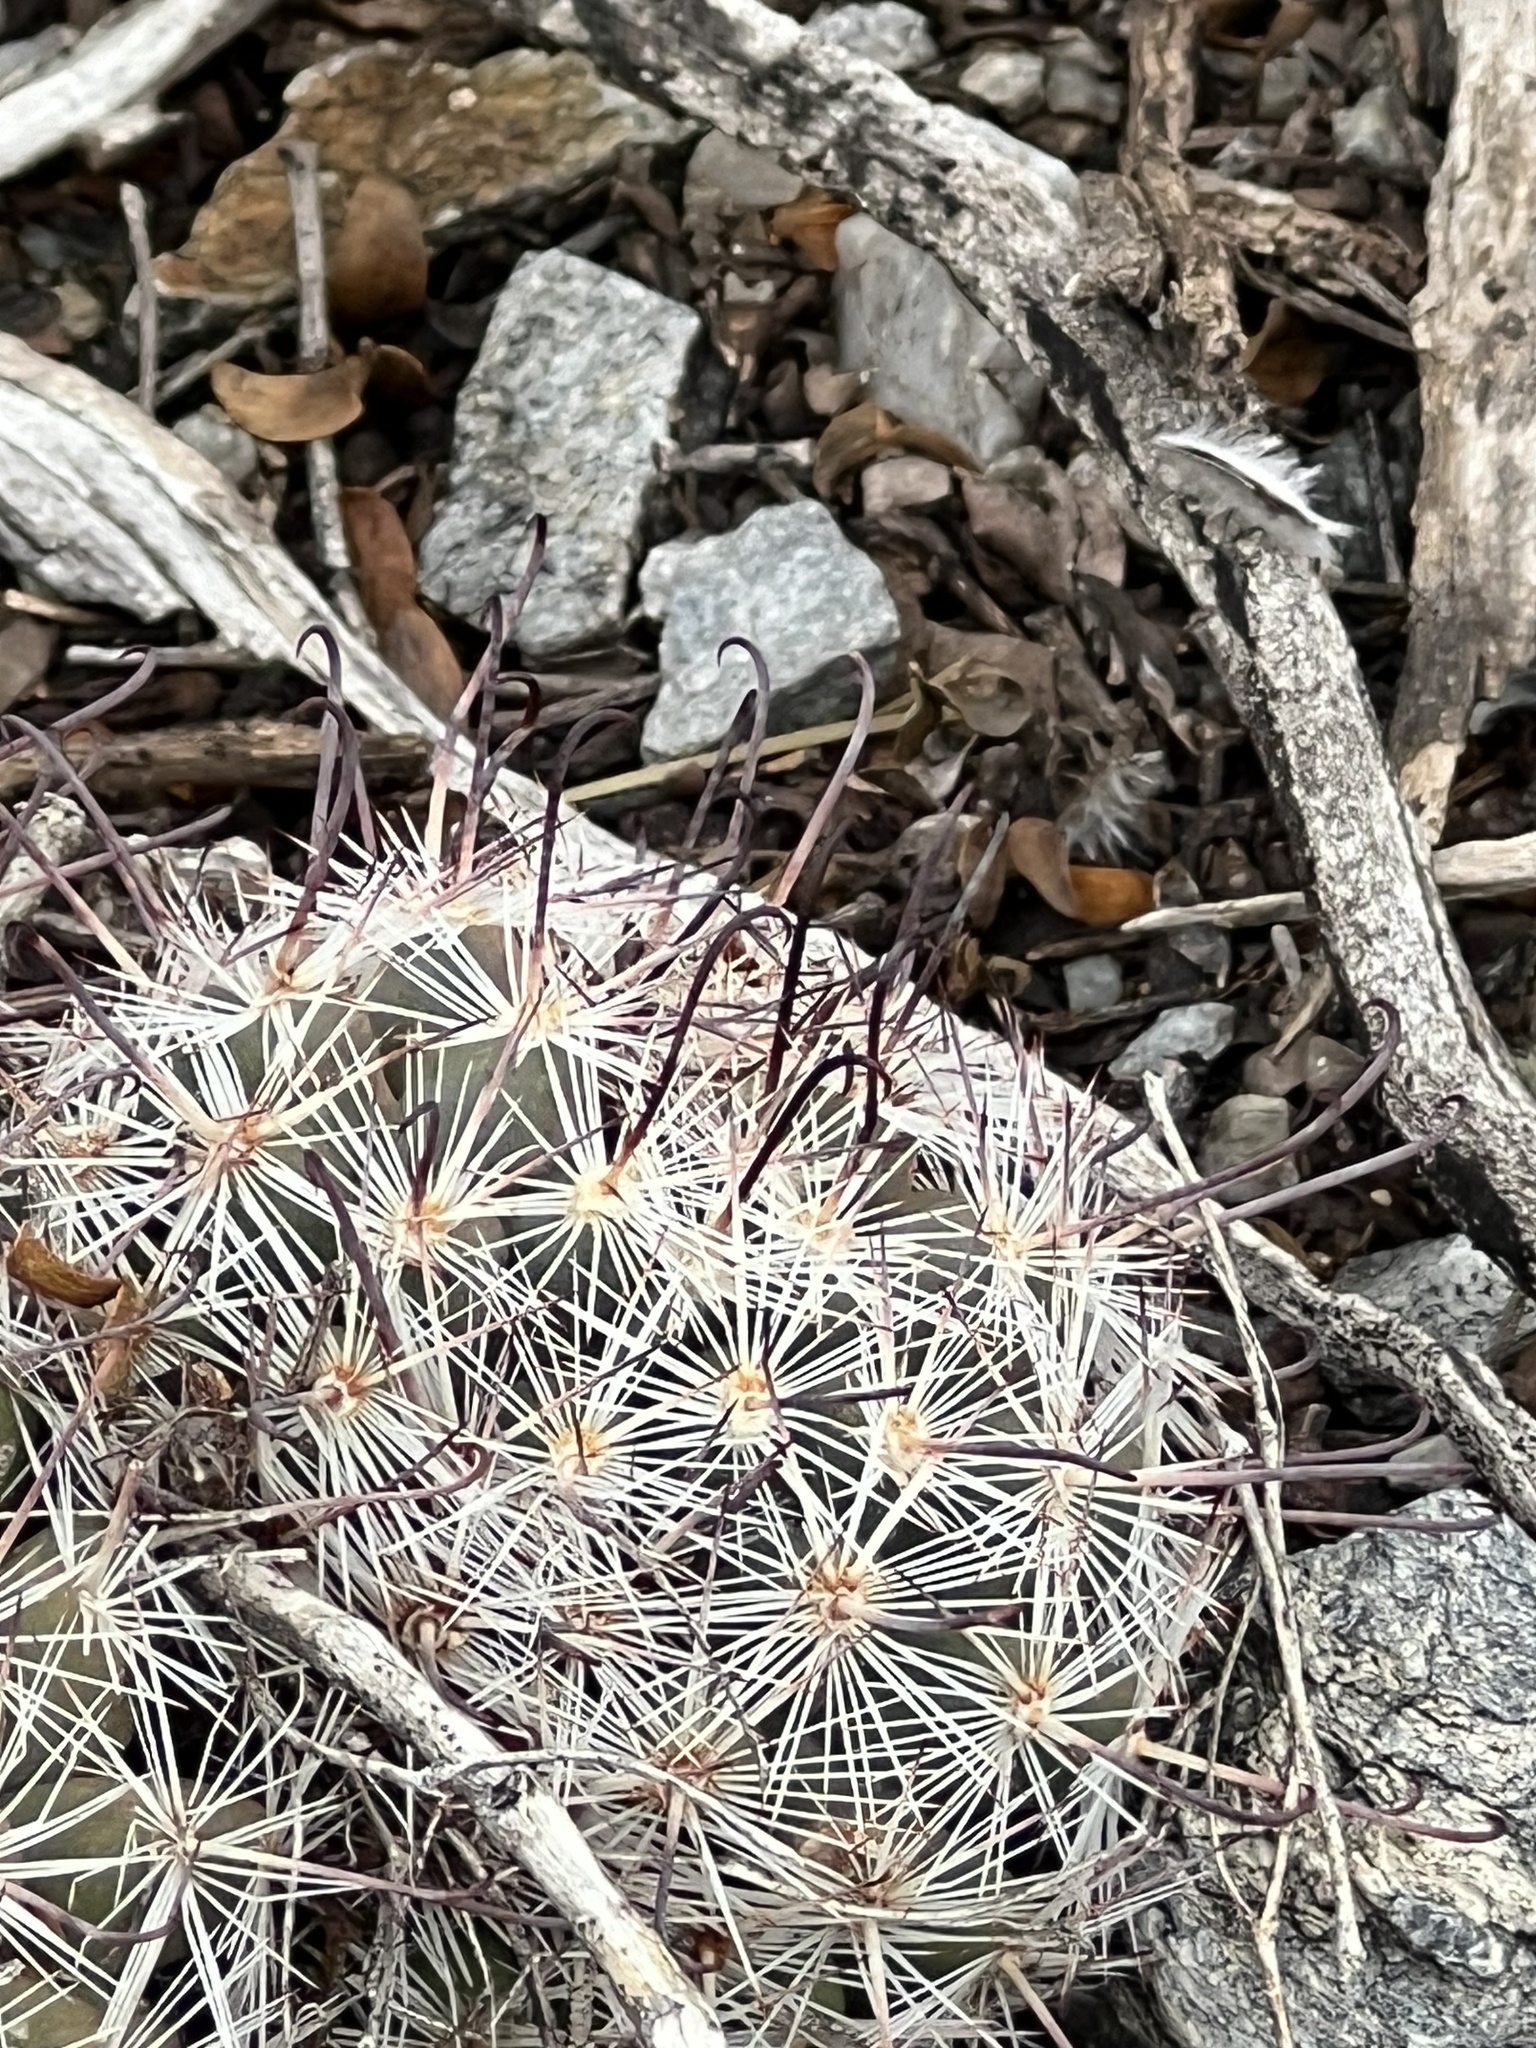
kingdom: Plantae
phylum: Tracheophyta
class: Magnoliopsida
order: Caryophyllales
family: Cactaceae
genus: Cochemiea
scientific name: Cochemiea grahamii
